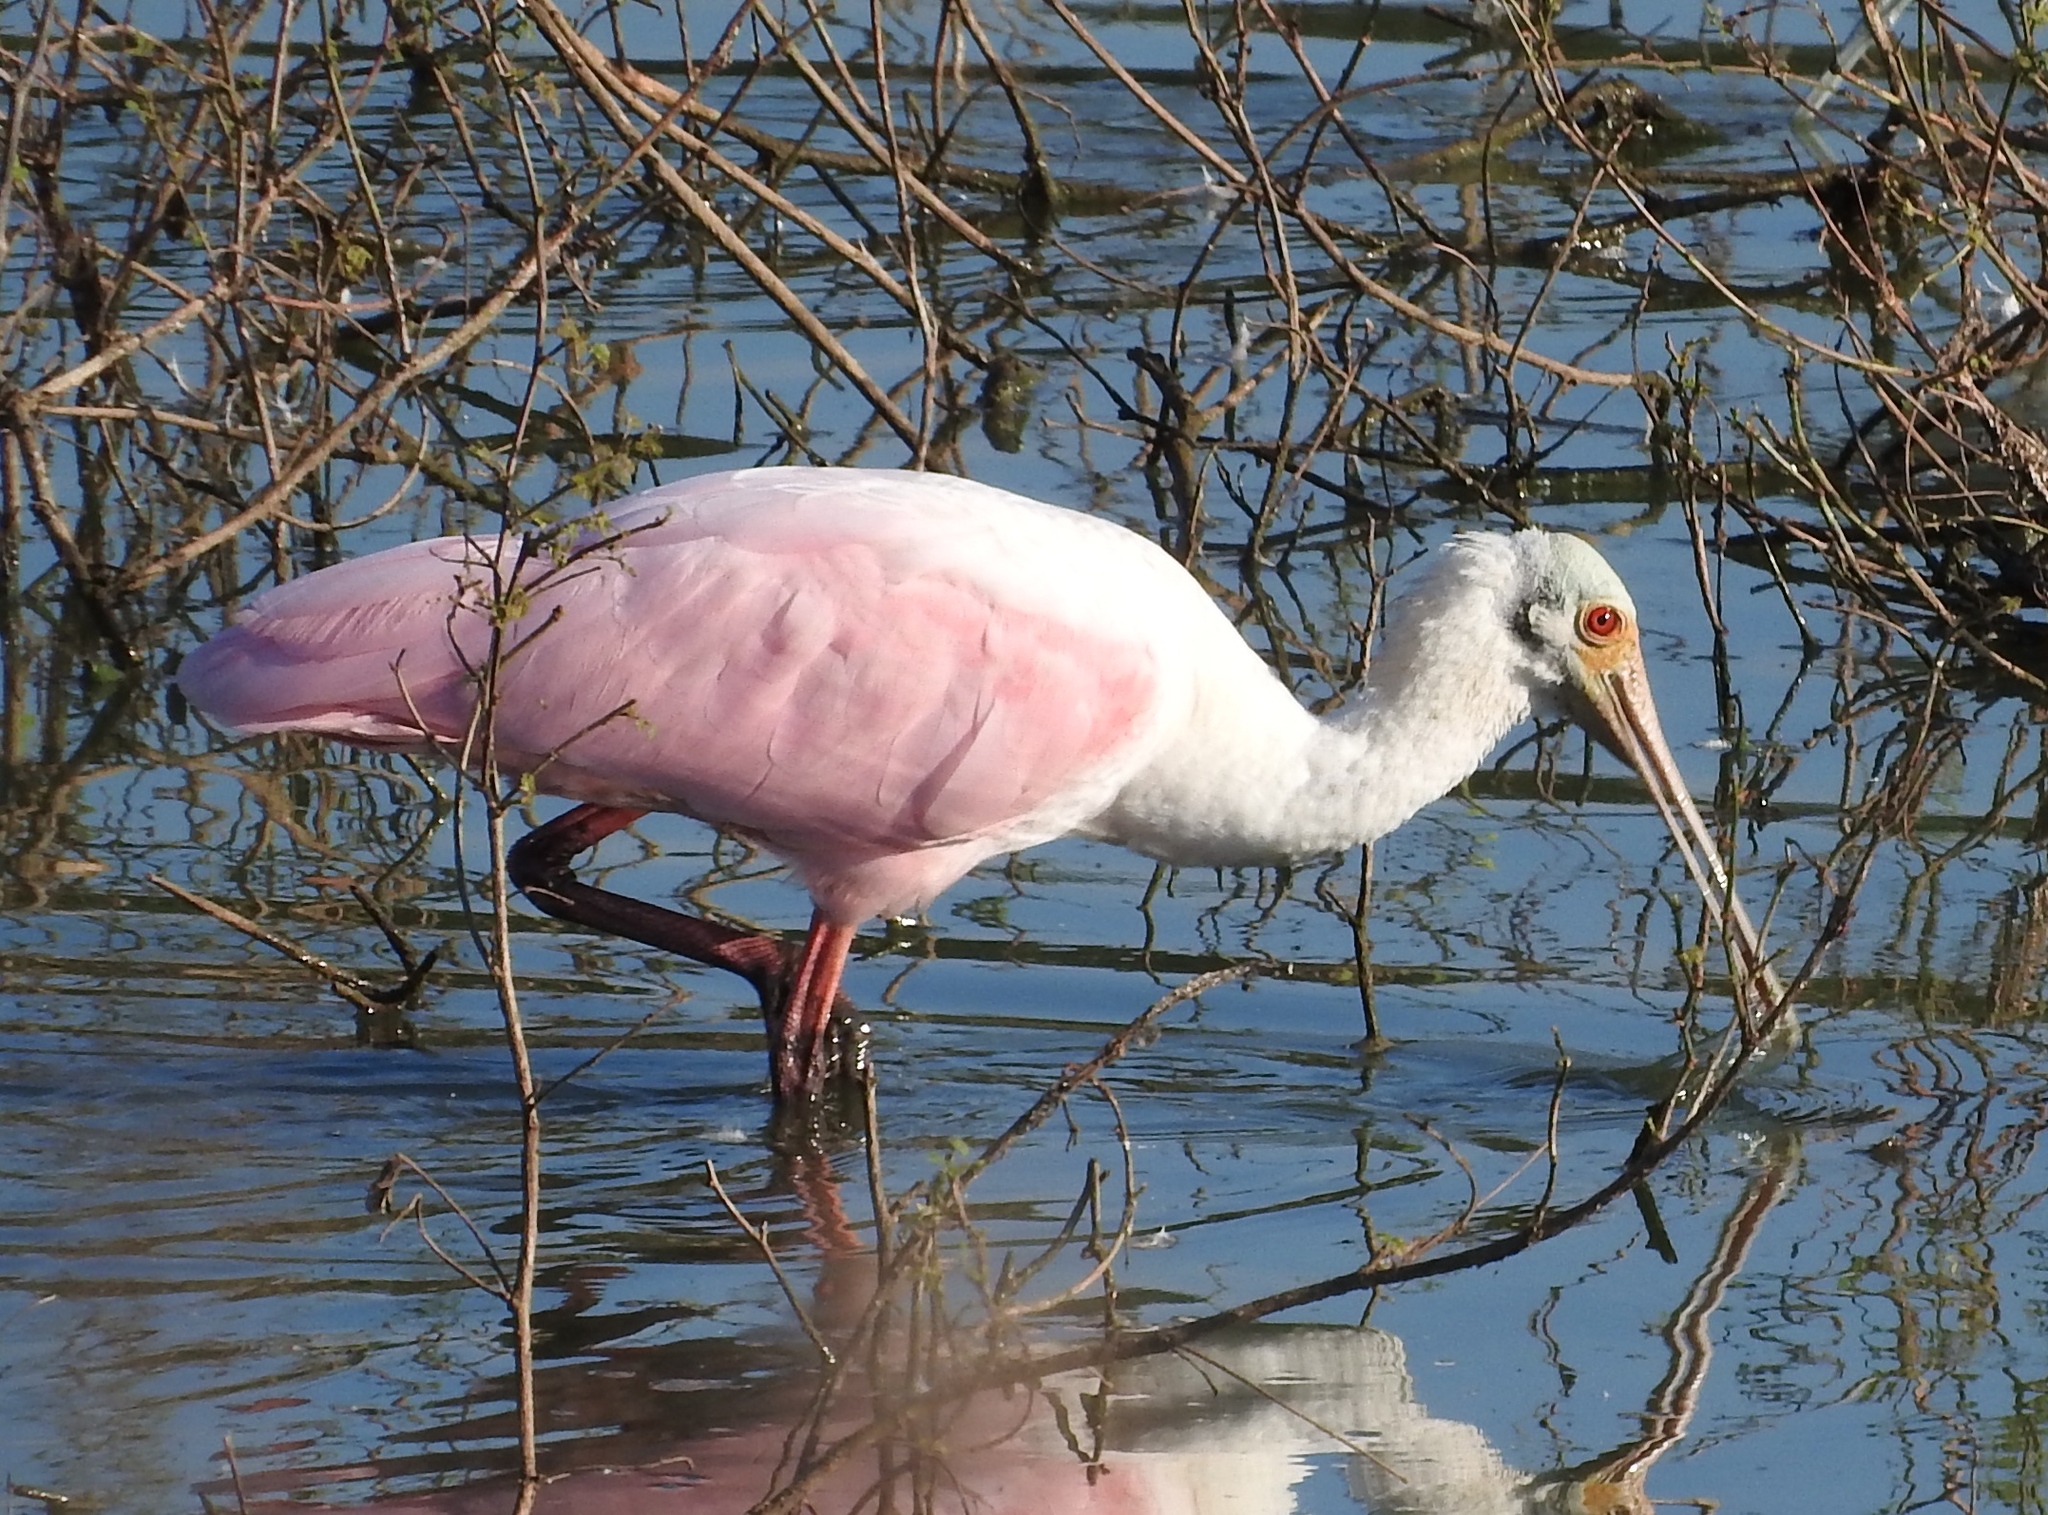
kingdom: Animalia
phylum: Chordata
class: Aves
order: Pelecaniformes
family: Threskiornithidae
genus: Platalea
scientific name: Platalea ajaja
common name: Roseate spoonbill
